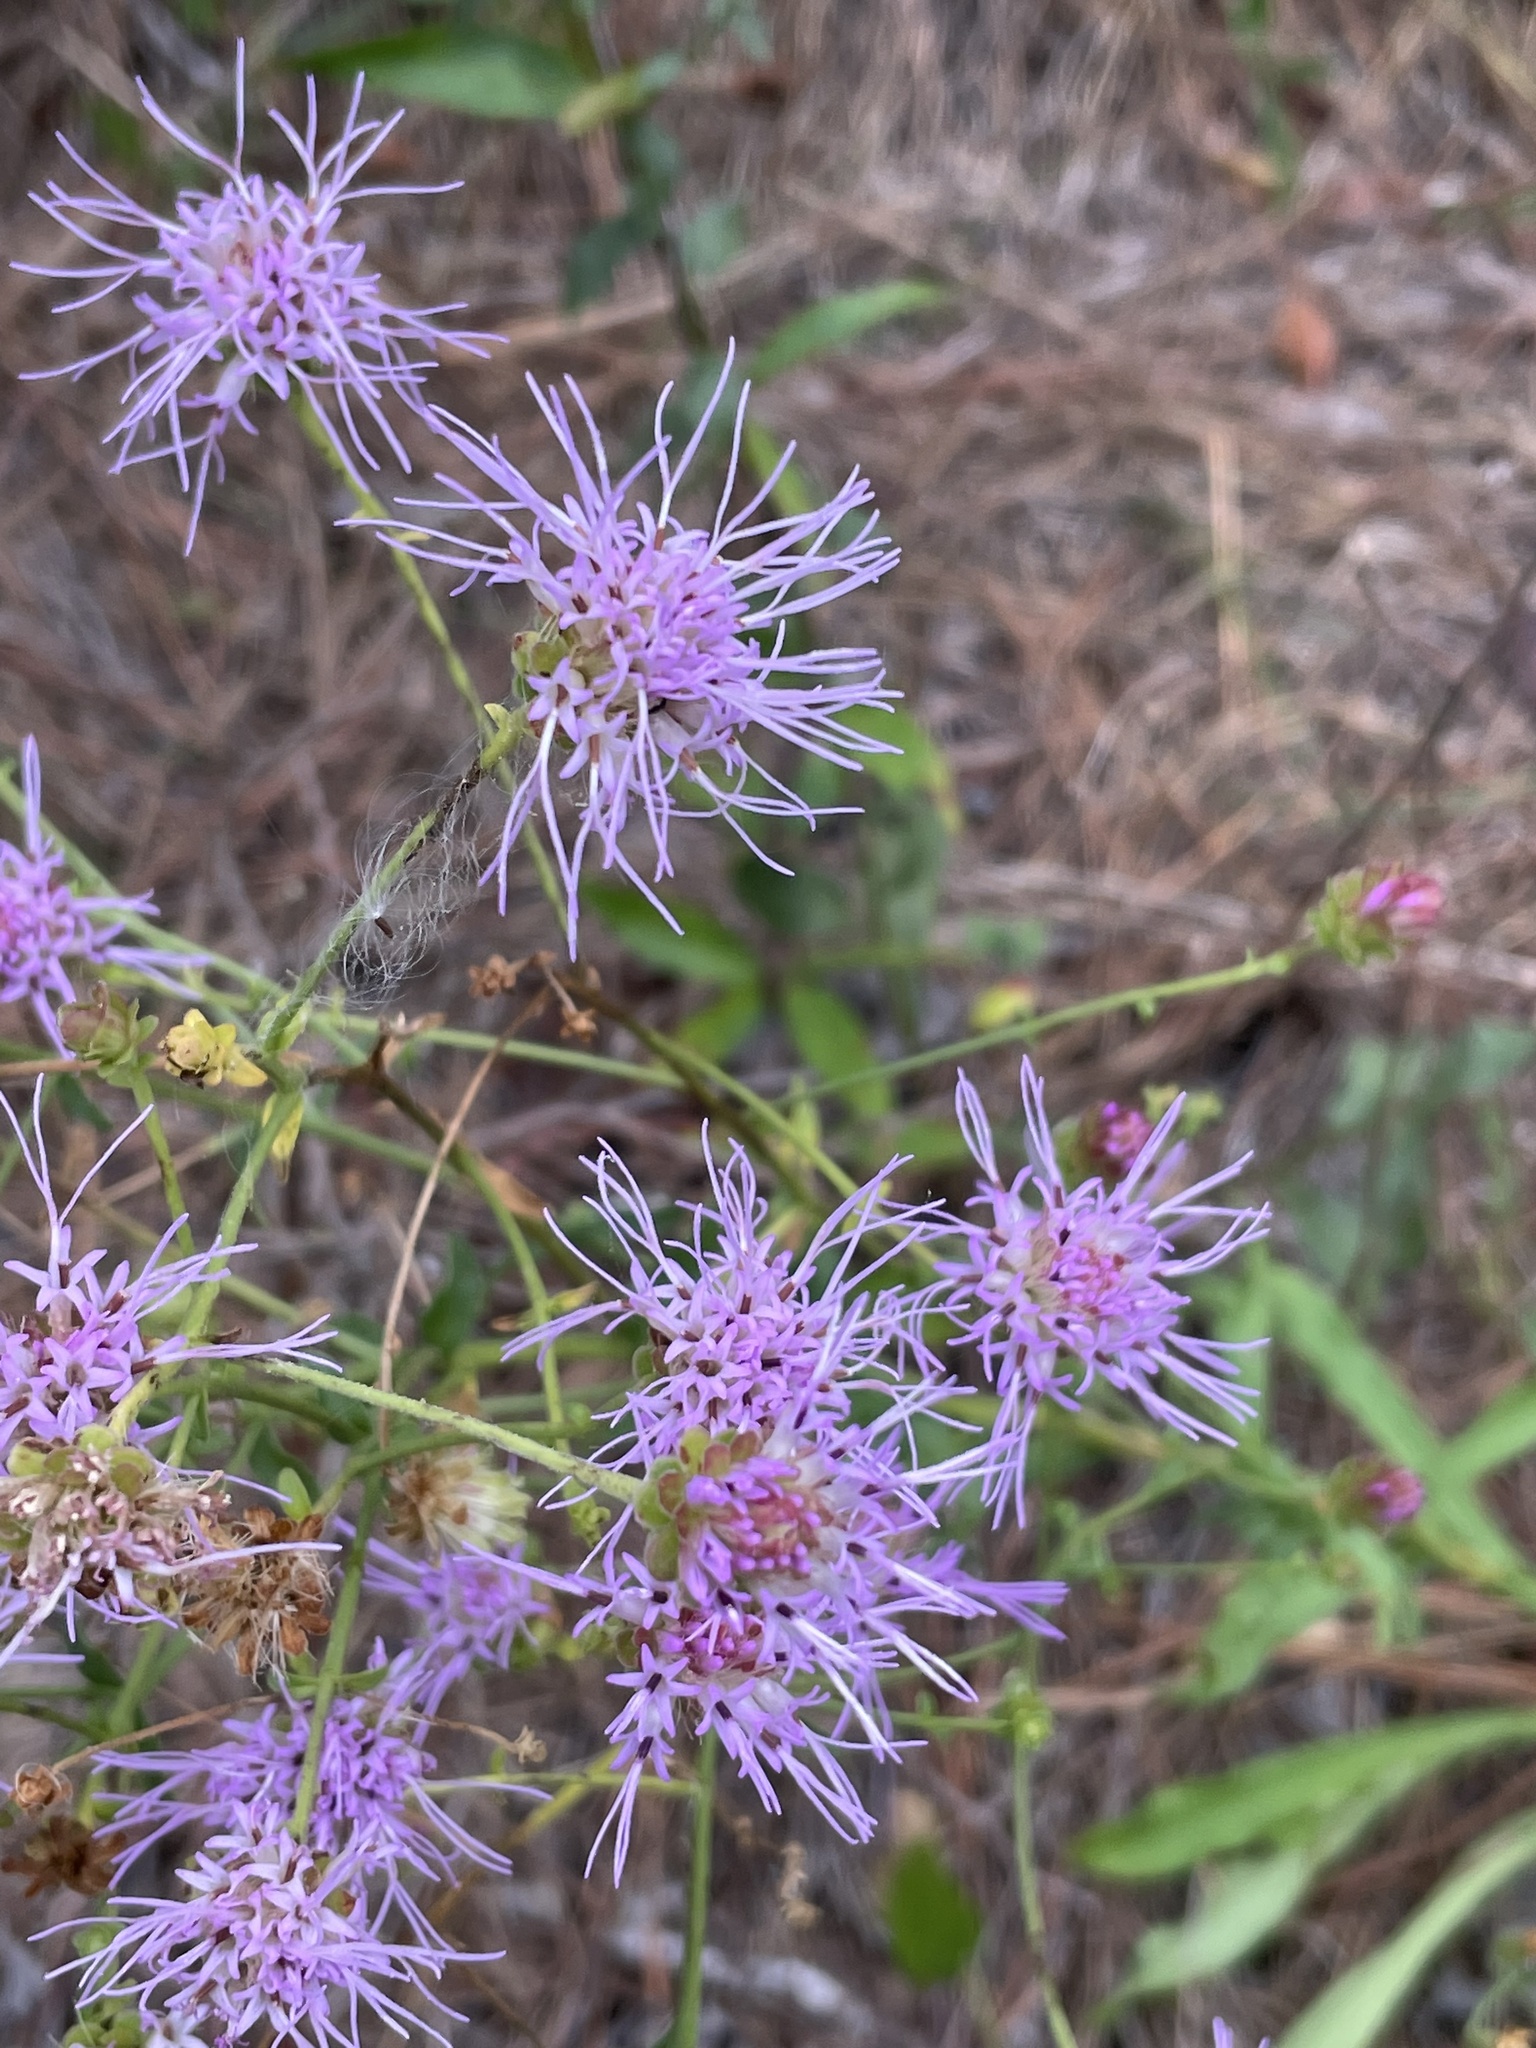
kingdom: Plantae
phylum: Tracheophyta
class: Magnoliopsida
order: Asterales
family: Asteraceae
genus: Carphephorus
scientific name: Carphephorus bellidifolius
